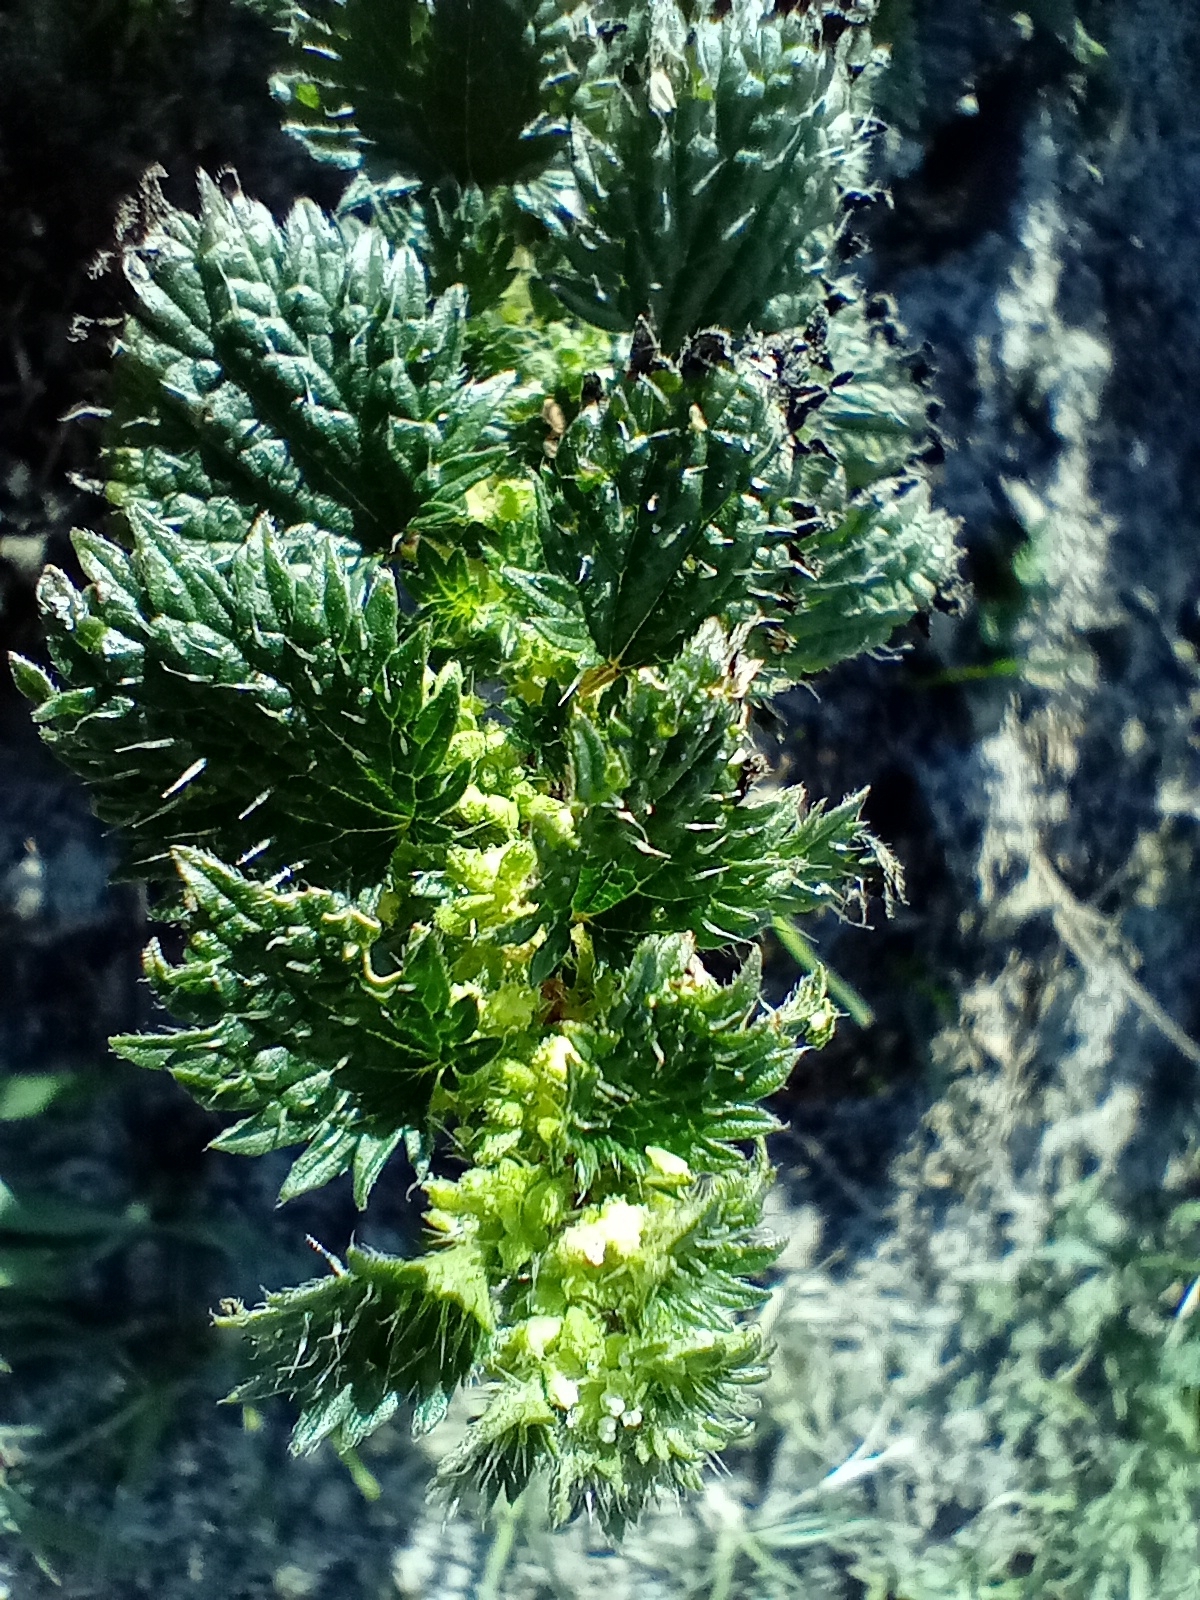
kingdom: Plantae
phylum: Tracheophyta
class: Magnoliopsida
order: Rosales
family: Urticaceae
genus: Urtica
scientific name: Urtica urens
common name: Dwarf nettle
